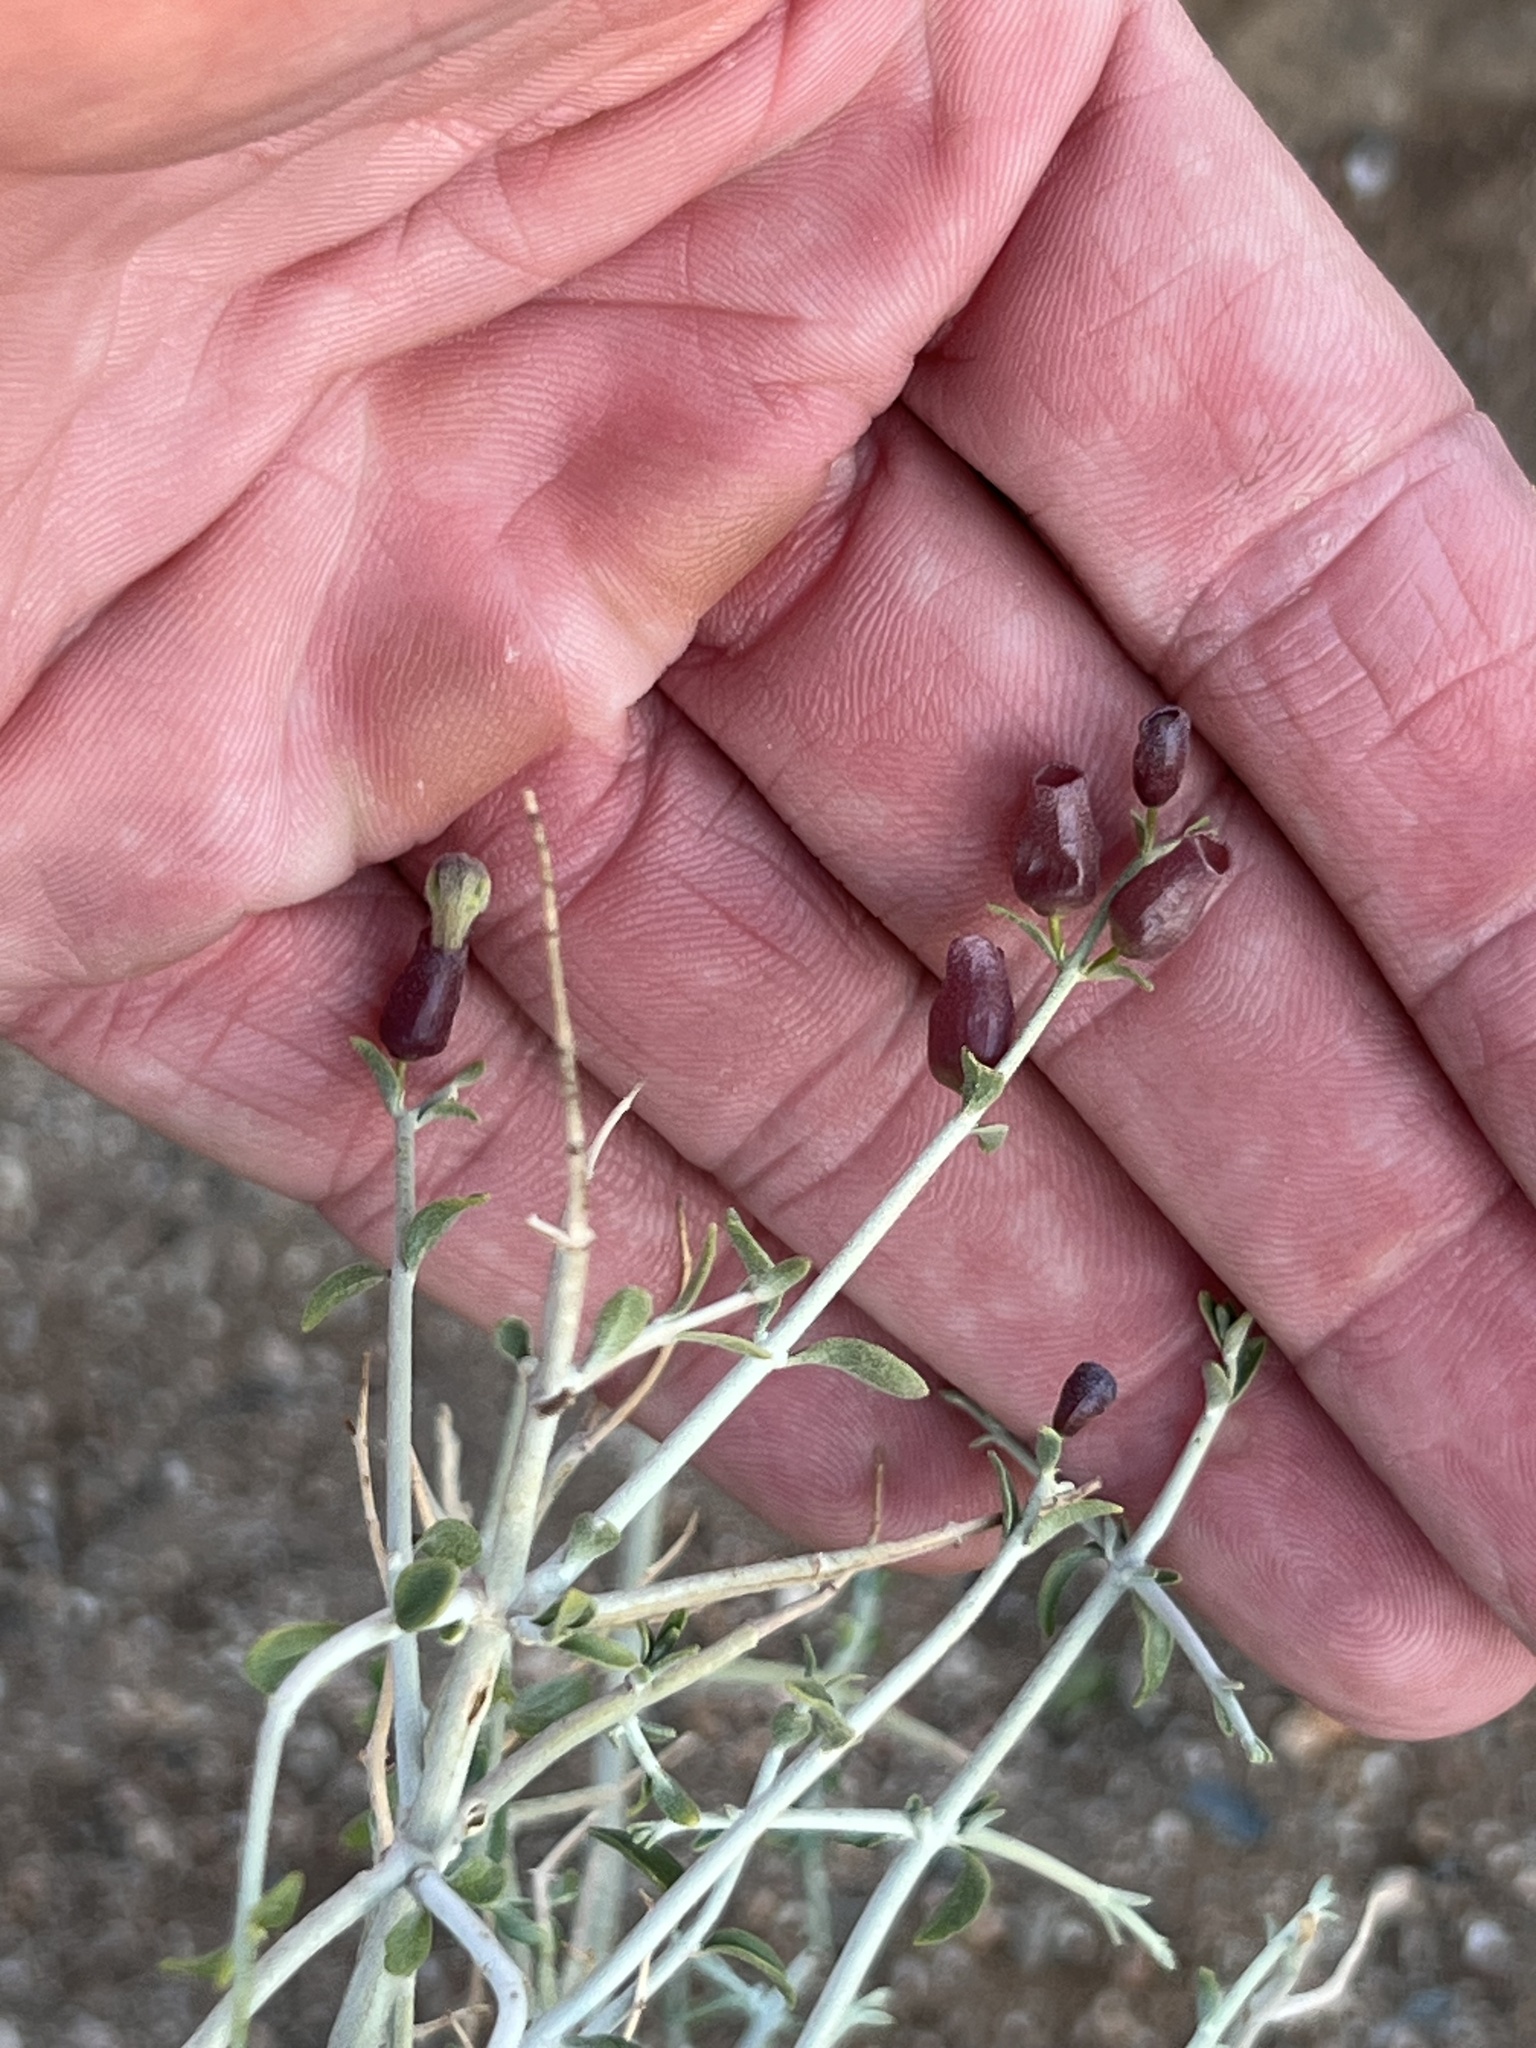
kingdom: Plantae
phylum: Tracheophyta
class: Magnoliopsida
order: Lamiales
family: Lamiaceae
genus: Scutellaria
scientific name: Scutellaria mexicana
